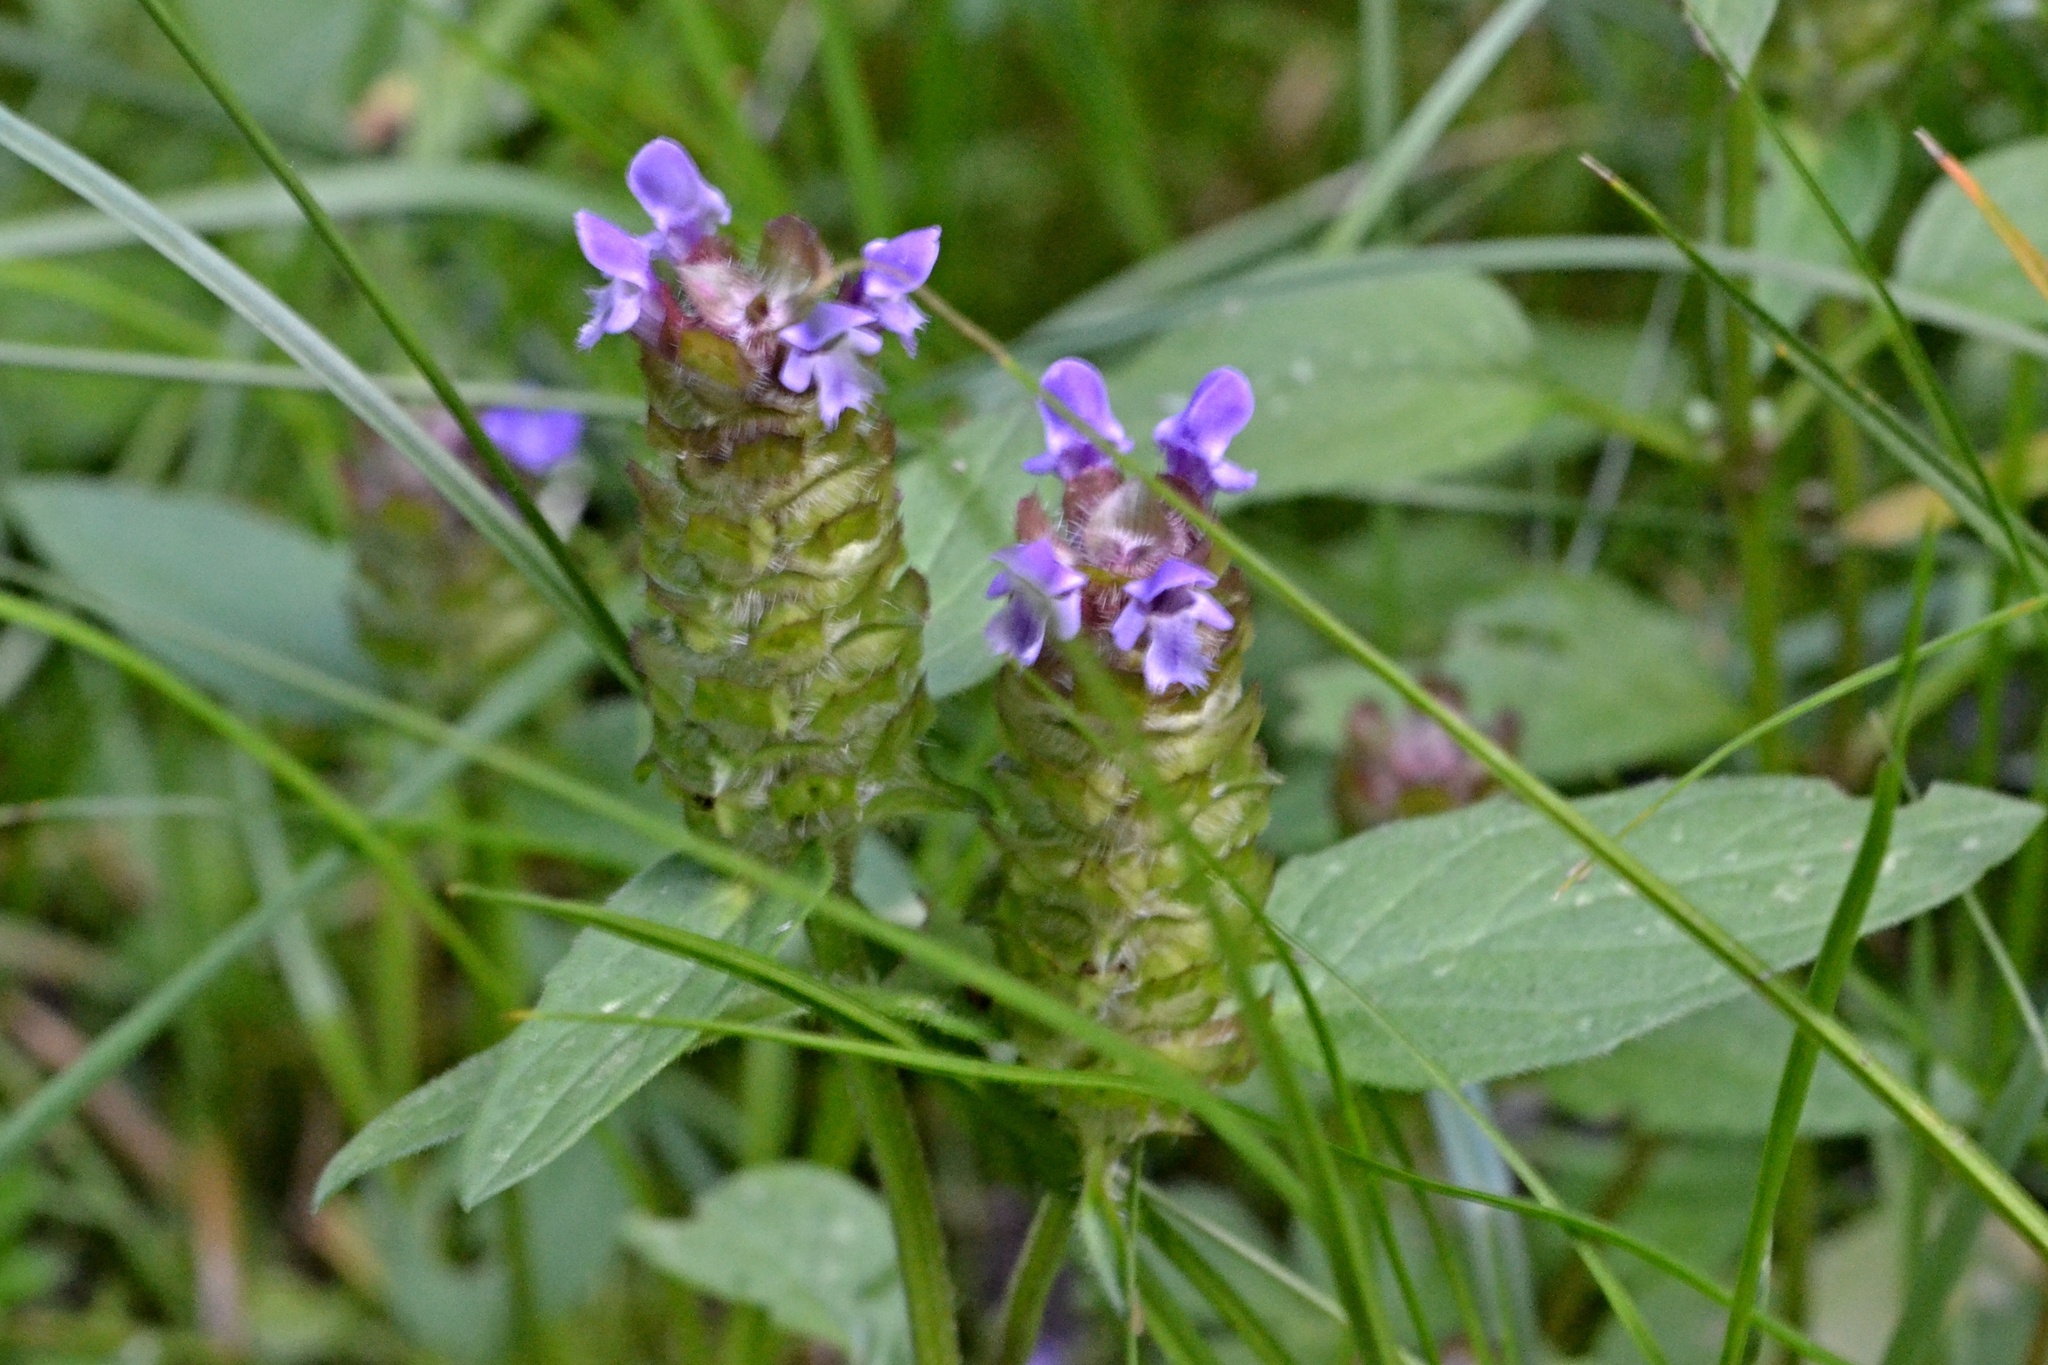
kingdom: Plantae
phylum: Tracheophyta
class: Magnoliopsida
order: Lamiales
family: Lamiaceae
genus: Prunella
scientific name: Prunella vulgaris
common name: Heal-all
